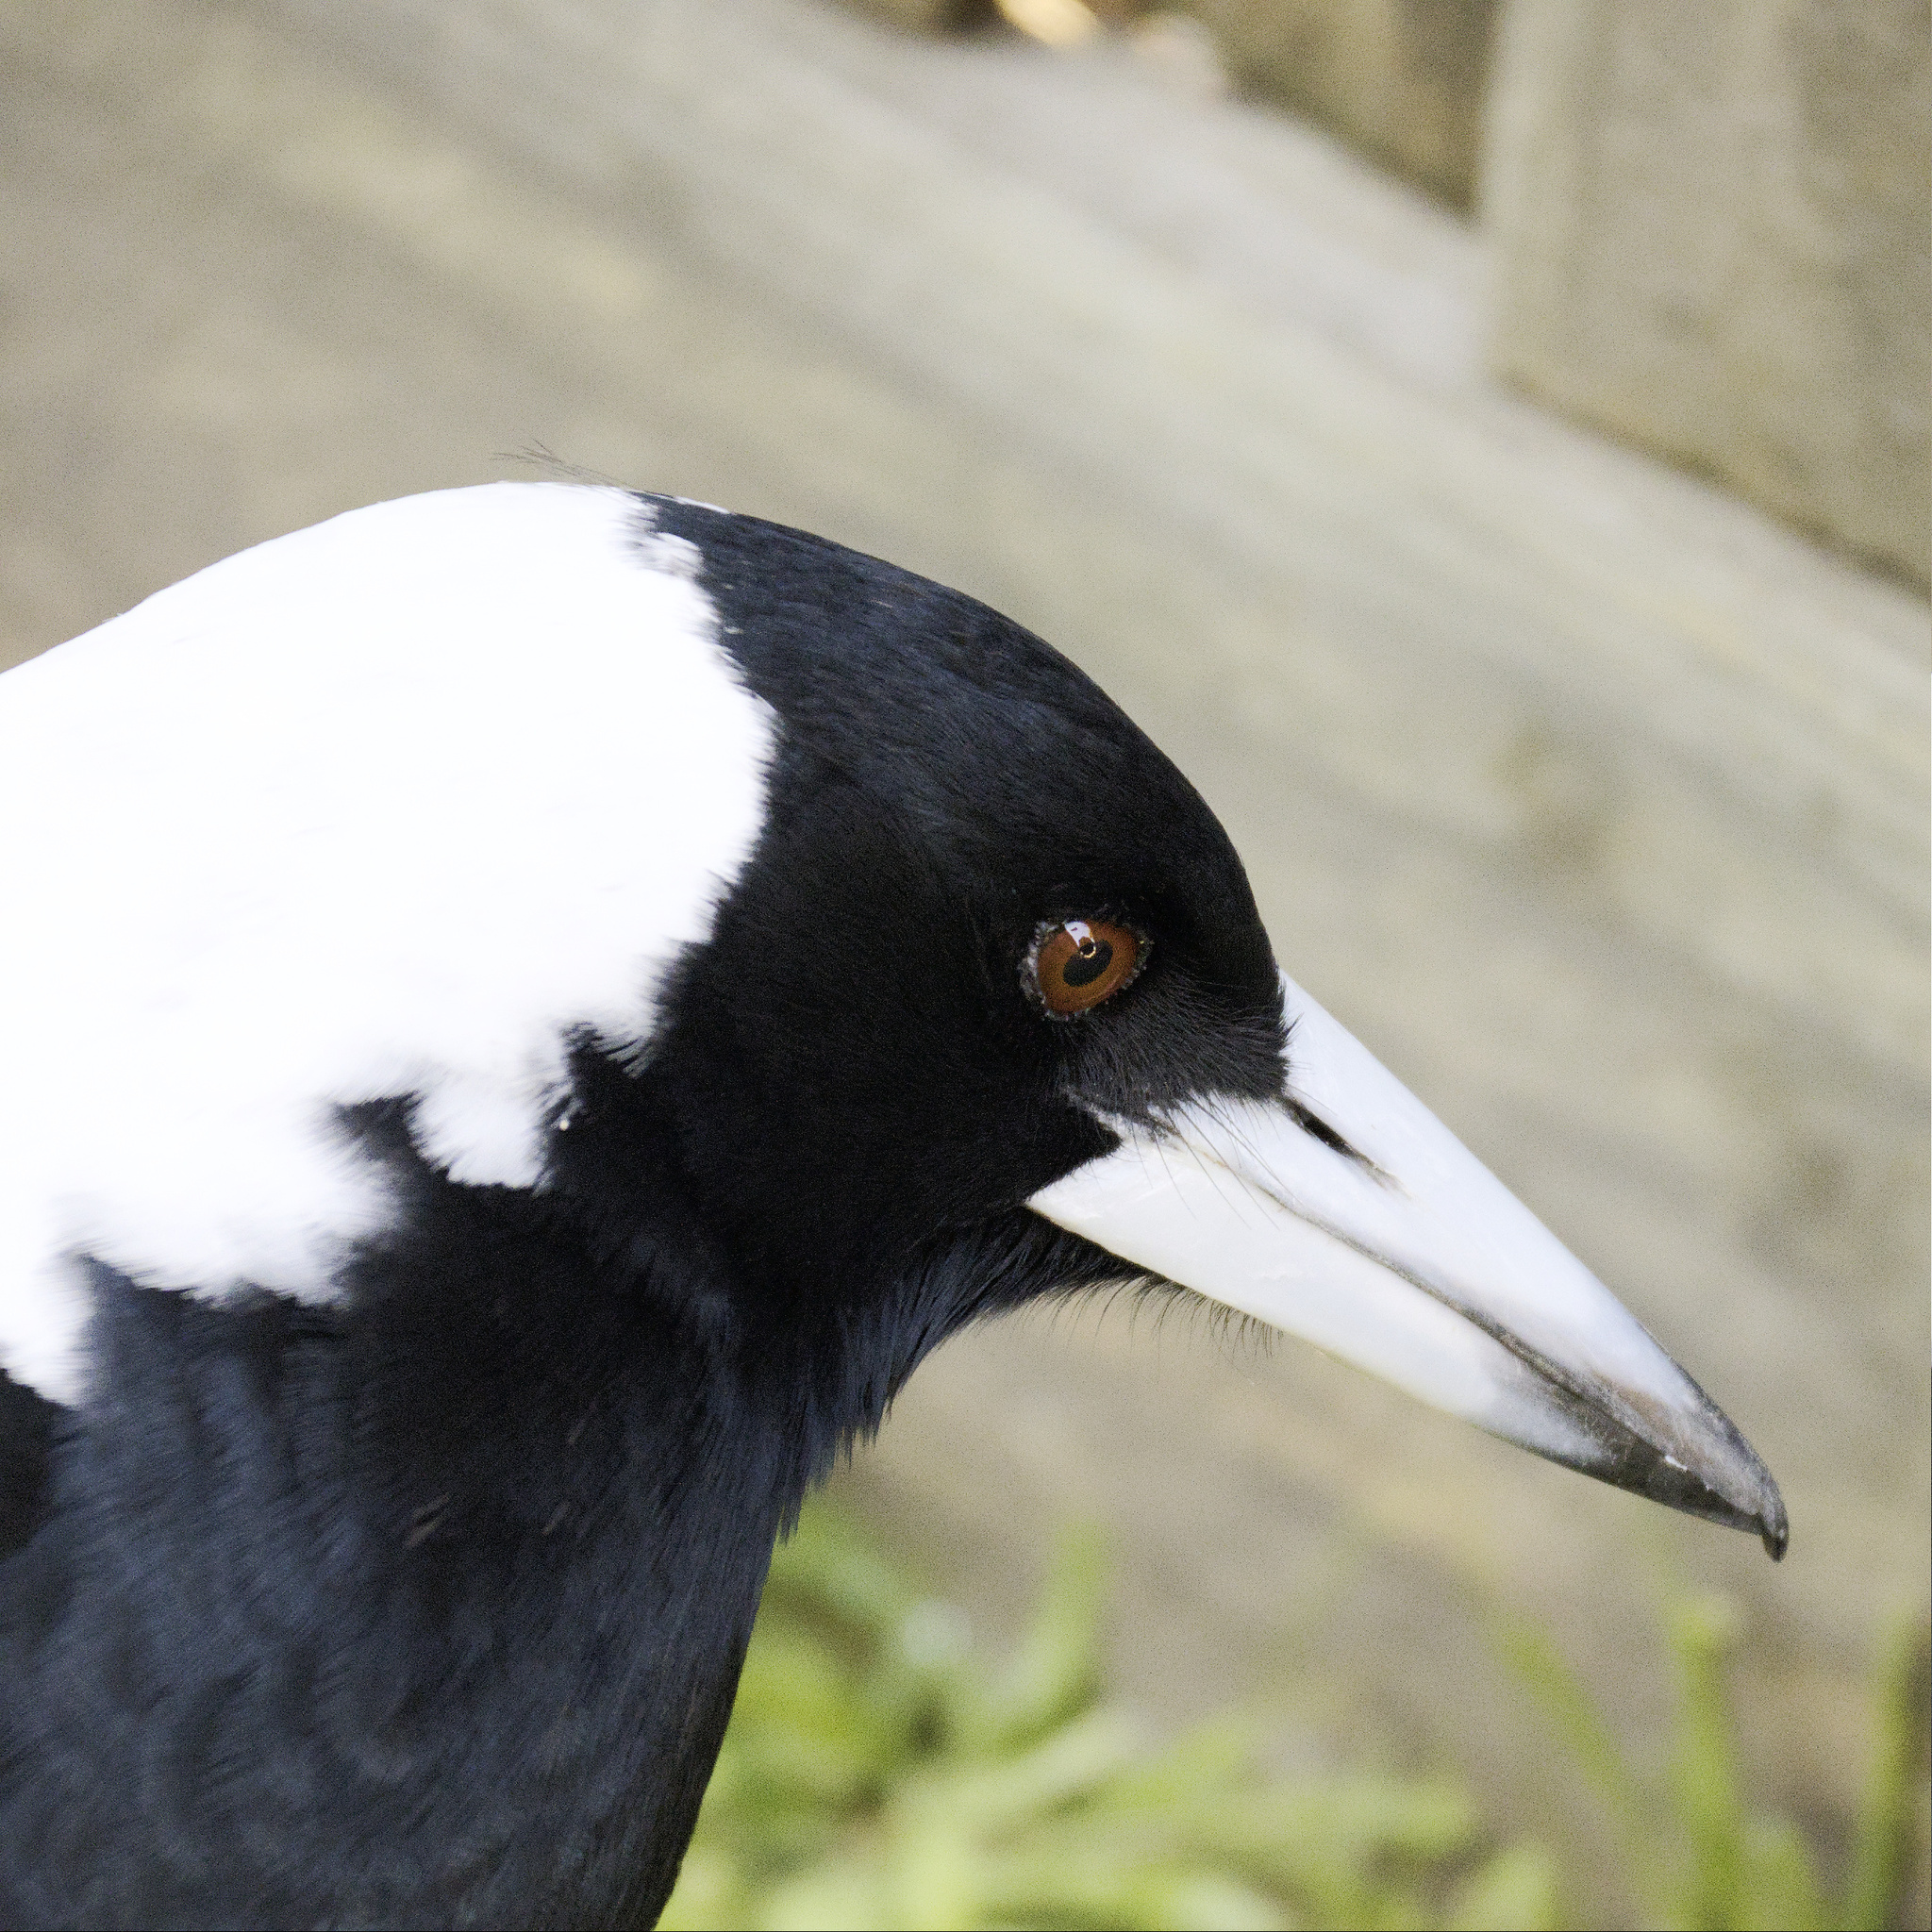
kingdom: Animalia
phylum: Chordata
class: Aves
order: Passeriformes
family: Cracticidae
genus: Gymnorhina
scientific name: Gymnorhina tibicen
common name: Australian magpie
